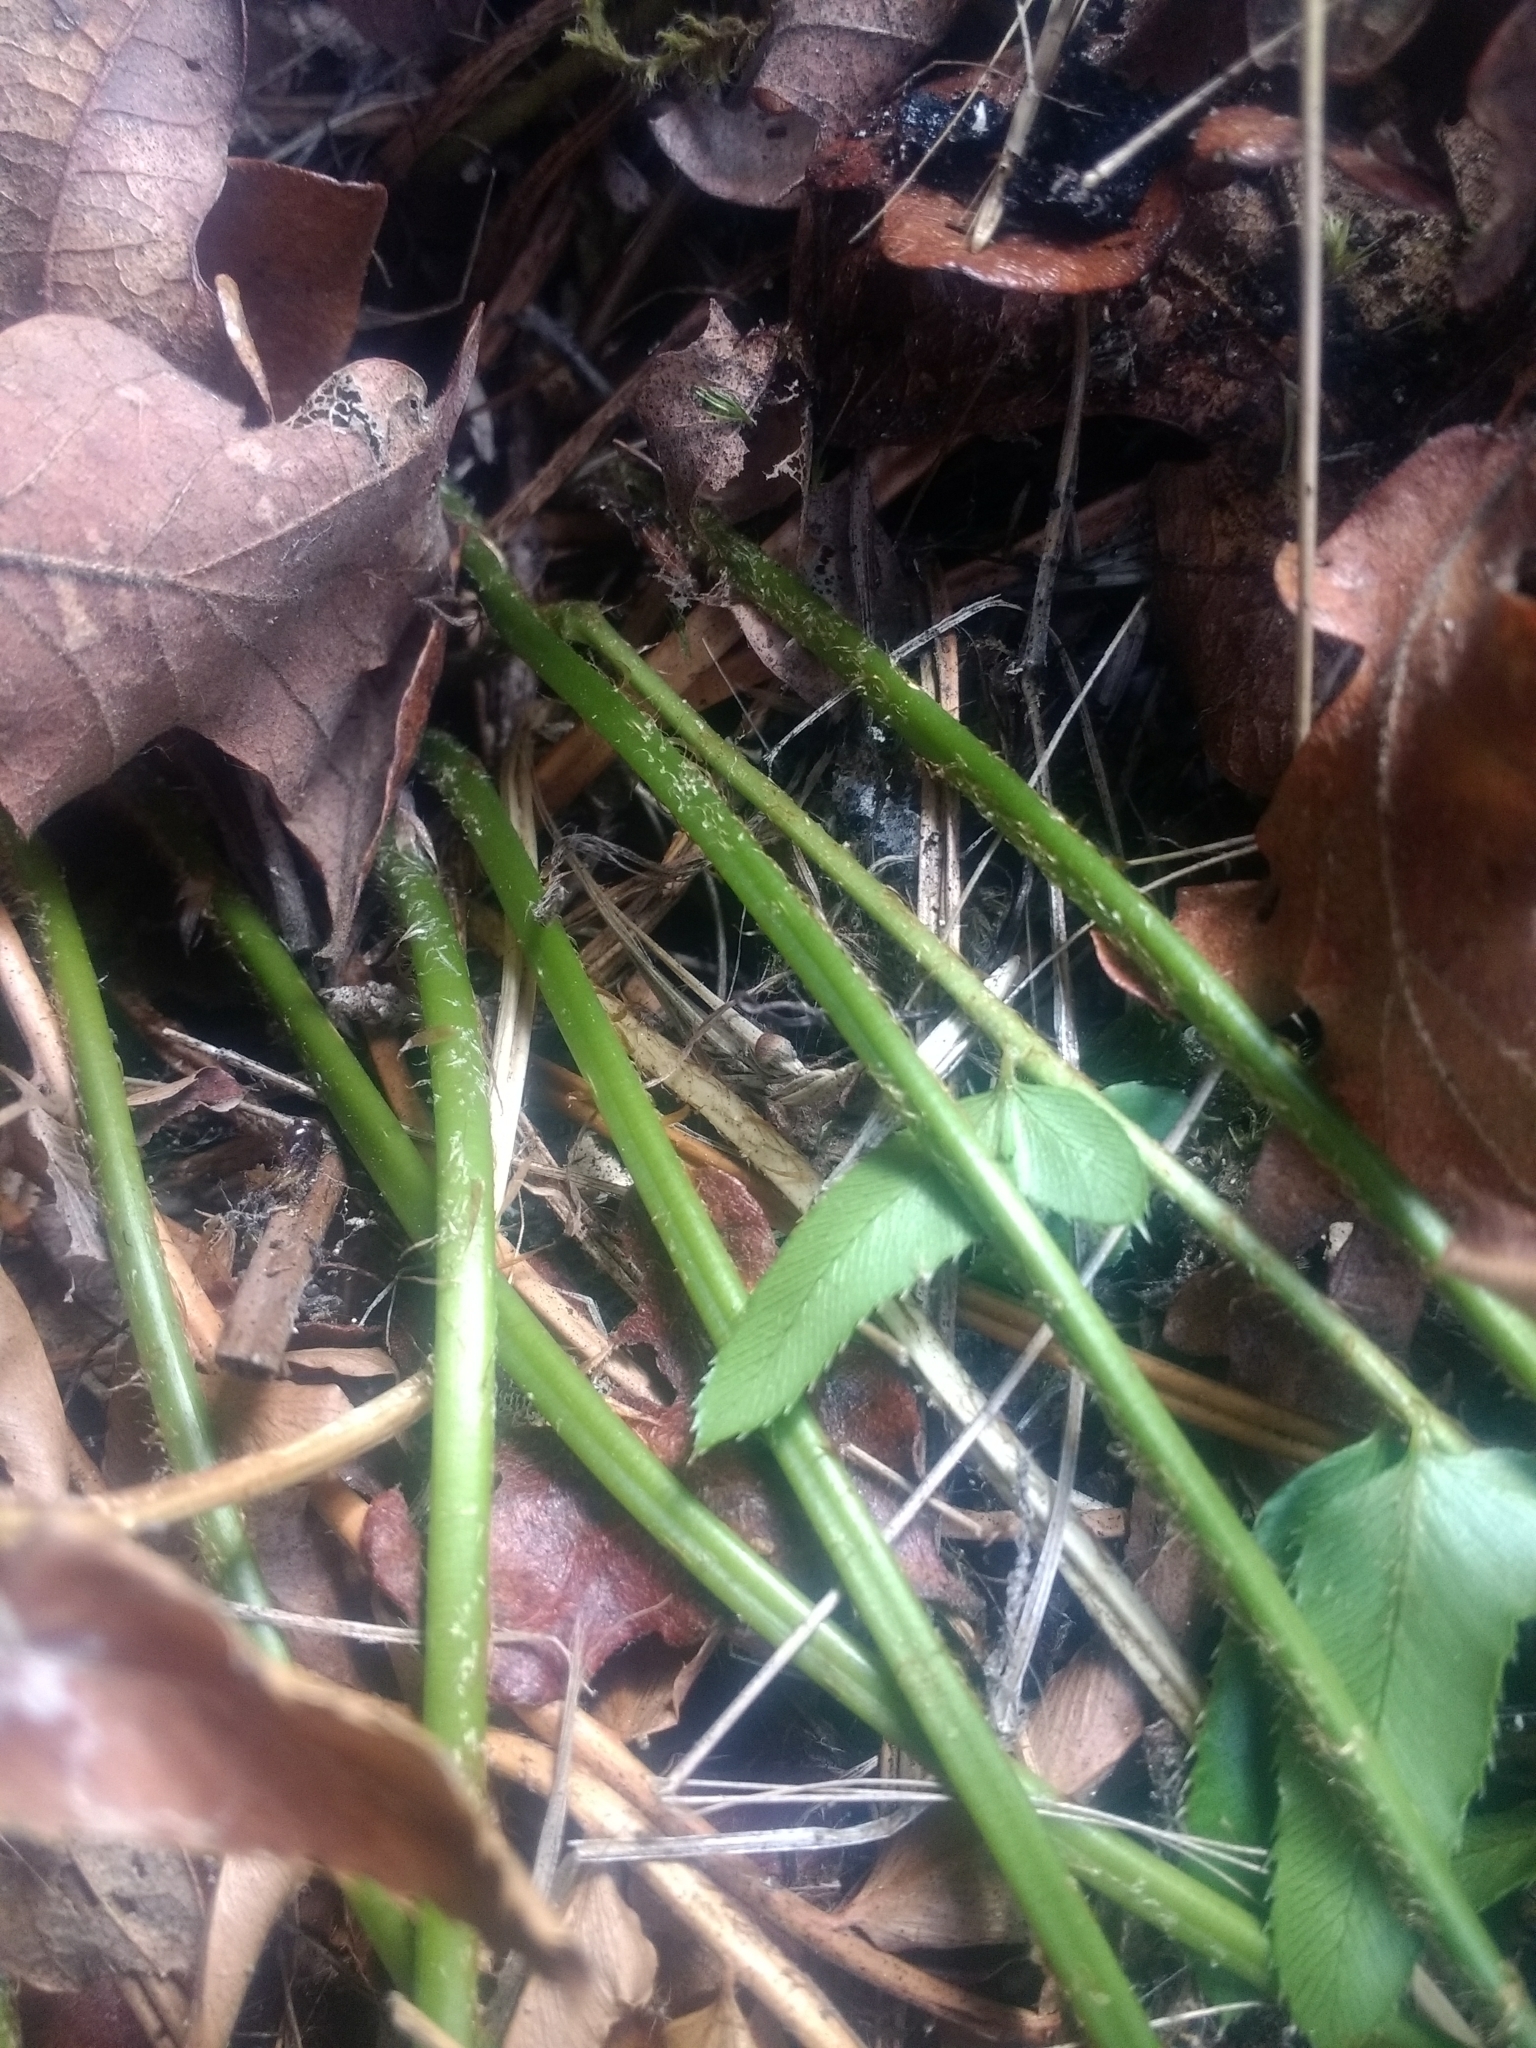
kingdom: Plantae
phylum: Tracheophyta
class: Polypodiopsida
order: Polypodiales
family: Dryopteridaceae
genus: Polystichum
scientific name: Polystichum imbricans
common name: Dwarf western sword fern
